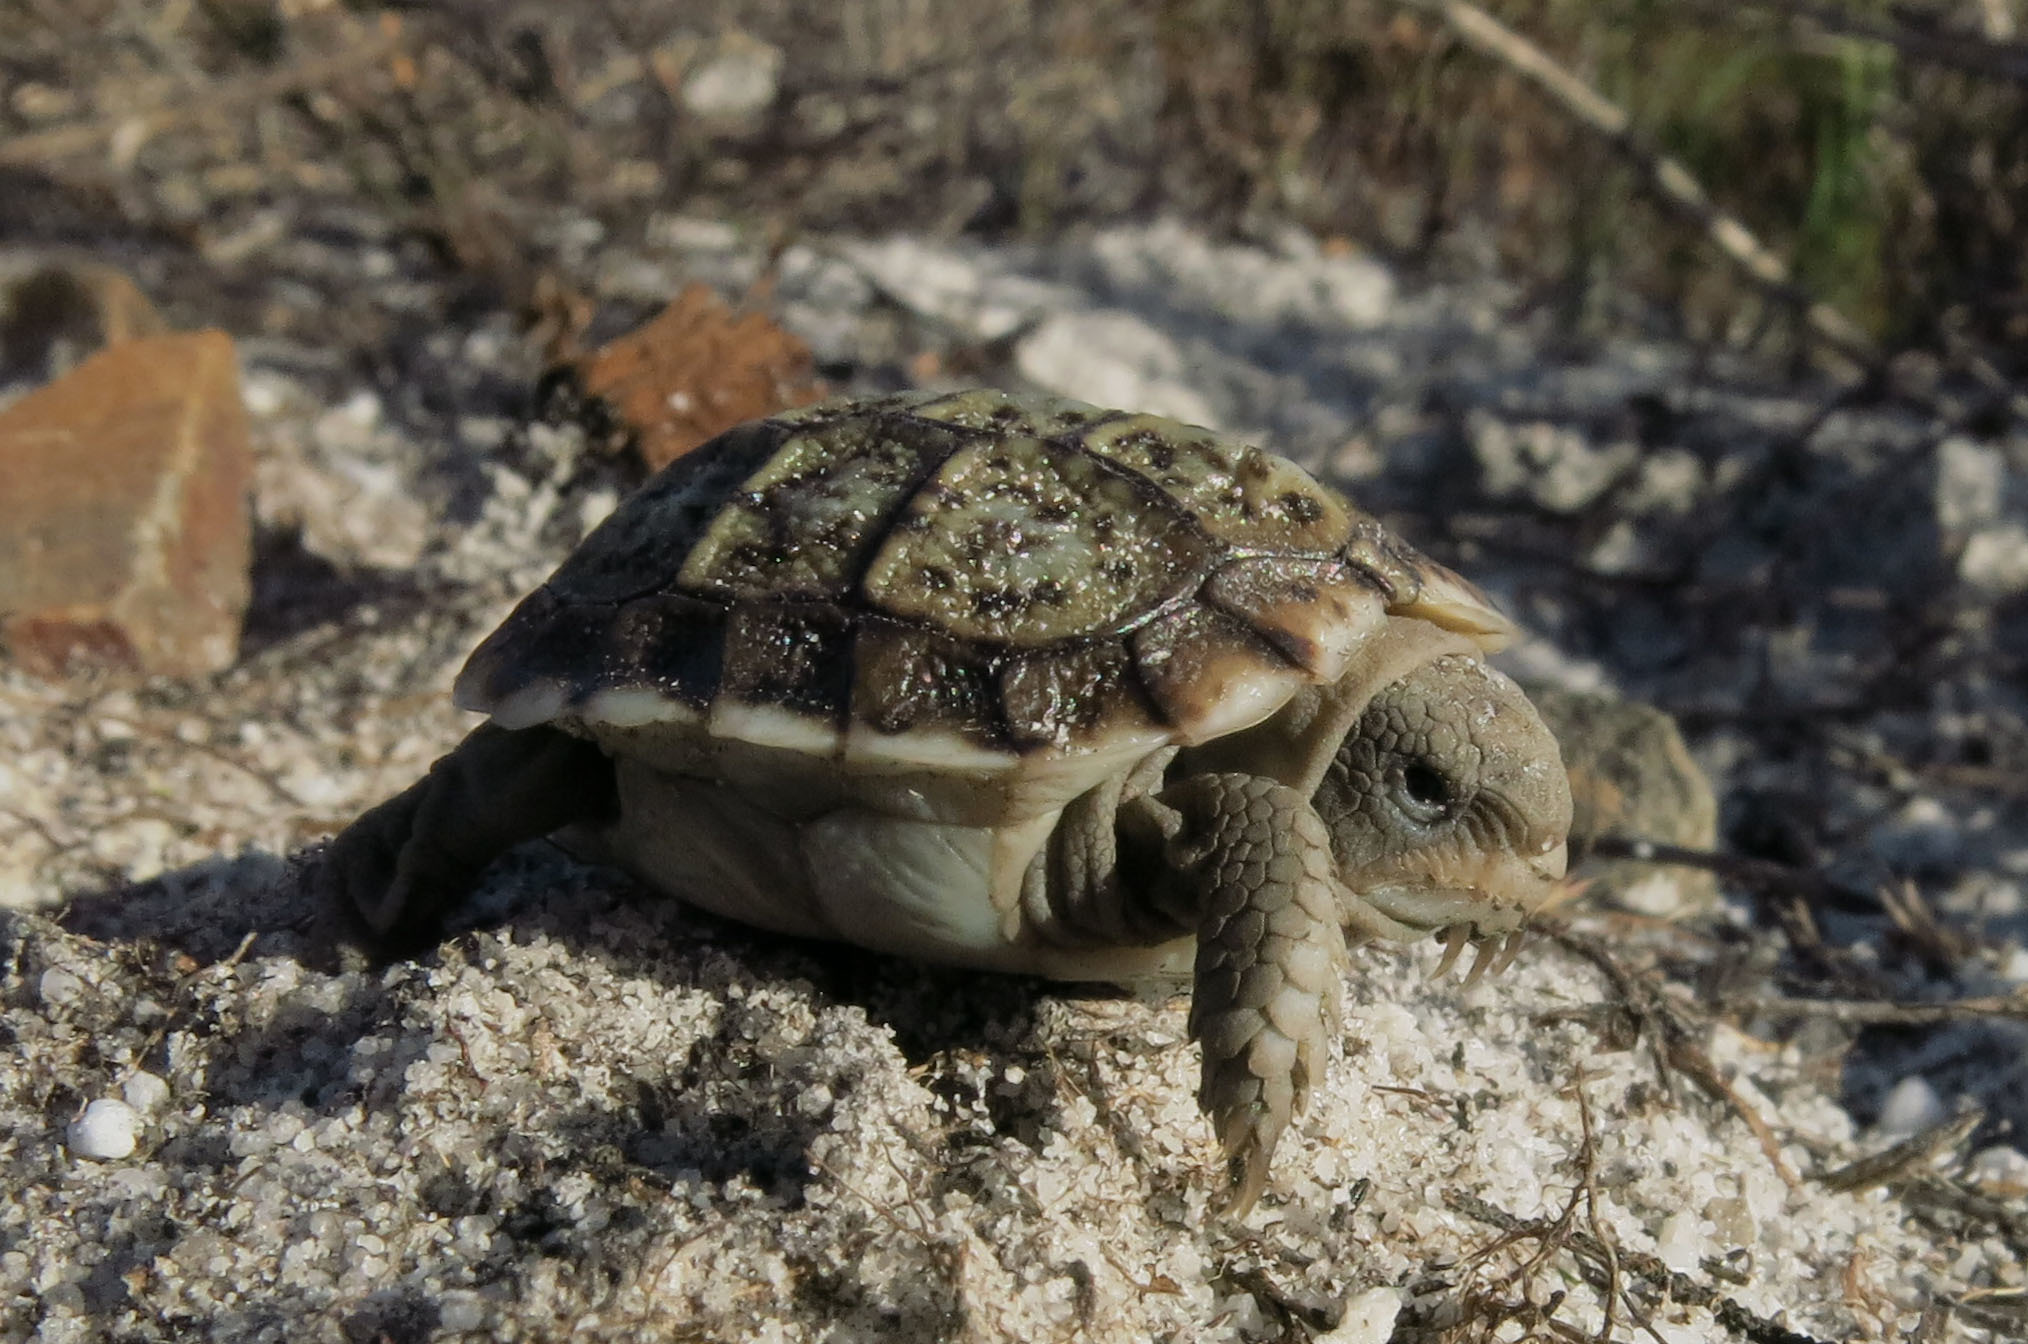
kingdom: Animalia
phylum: Chordata
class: Testudines
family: Testudinidae
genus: Homopus
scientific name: Homopus areolatus
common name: Parrot-beaked tortoise
